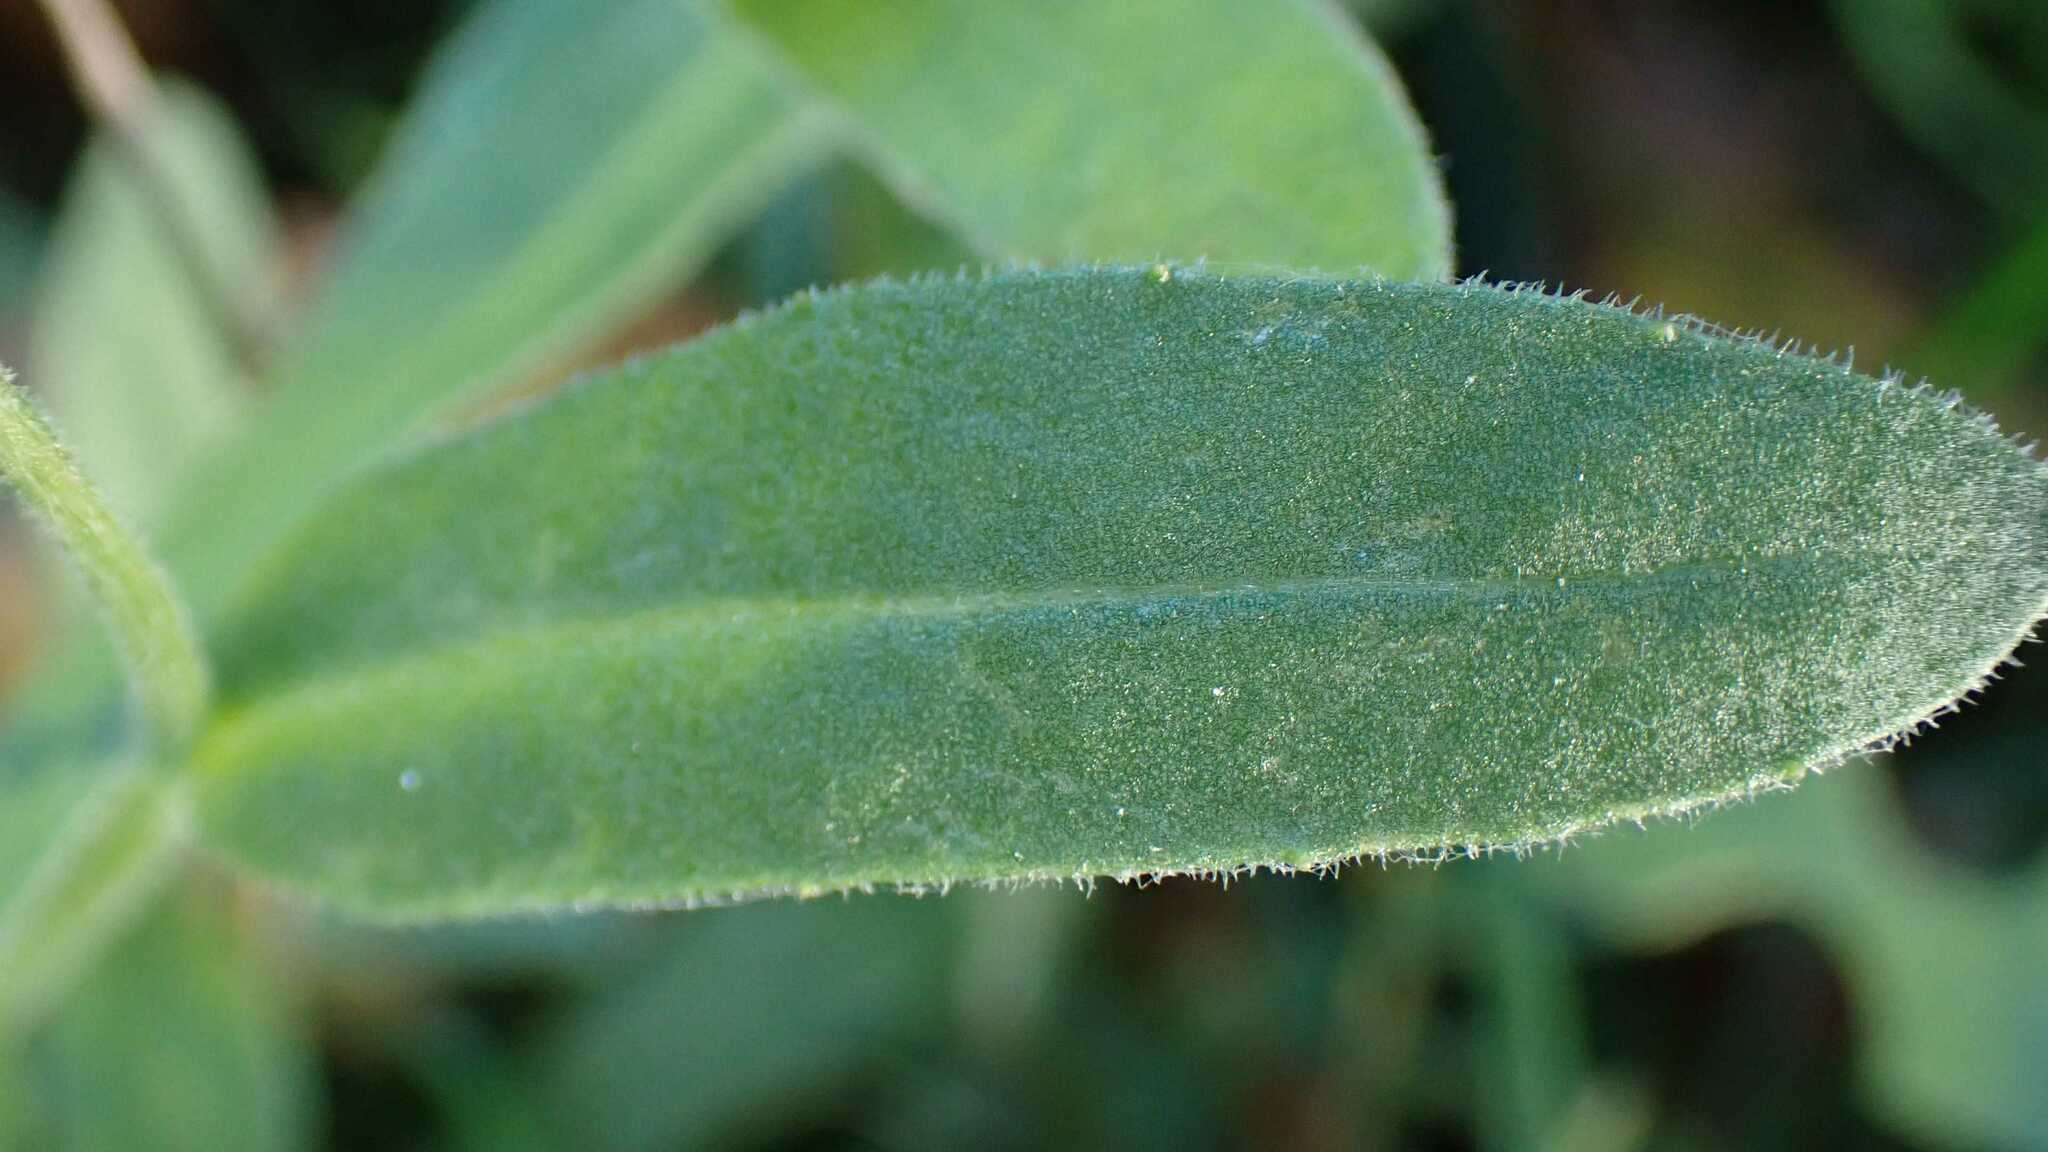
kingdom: Plantae
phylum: Tracheophyta
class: Magnoliopsida
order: Asterales
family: Asteraceae
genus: Calendula
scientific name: Calendula officinalis
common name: Pot marigold
